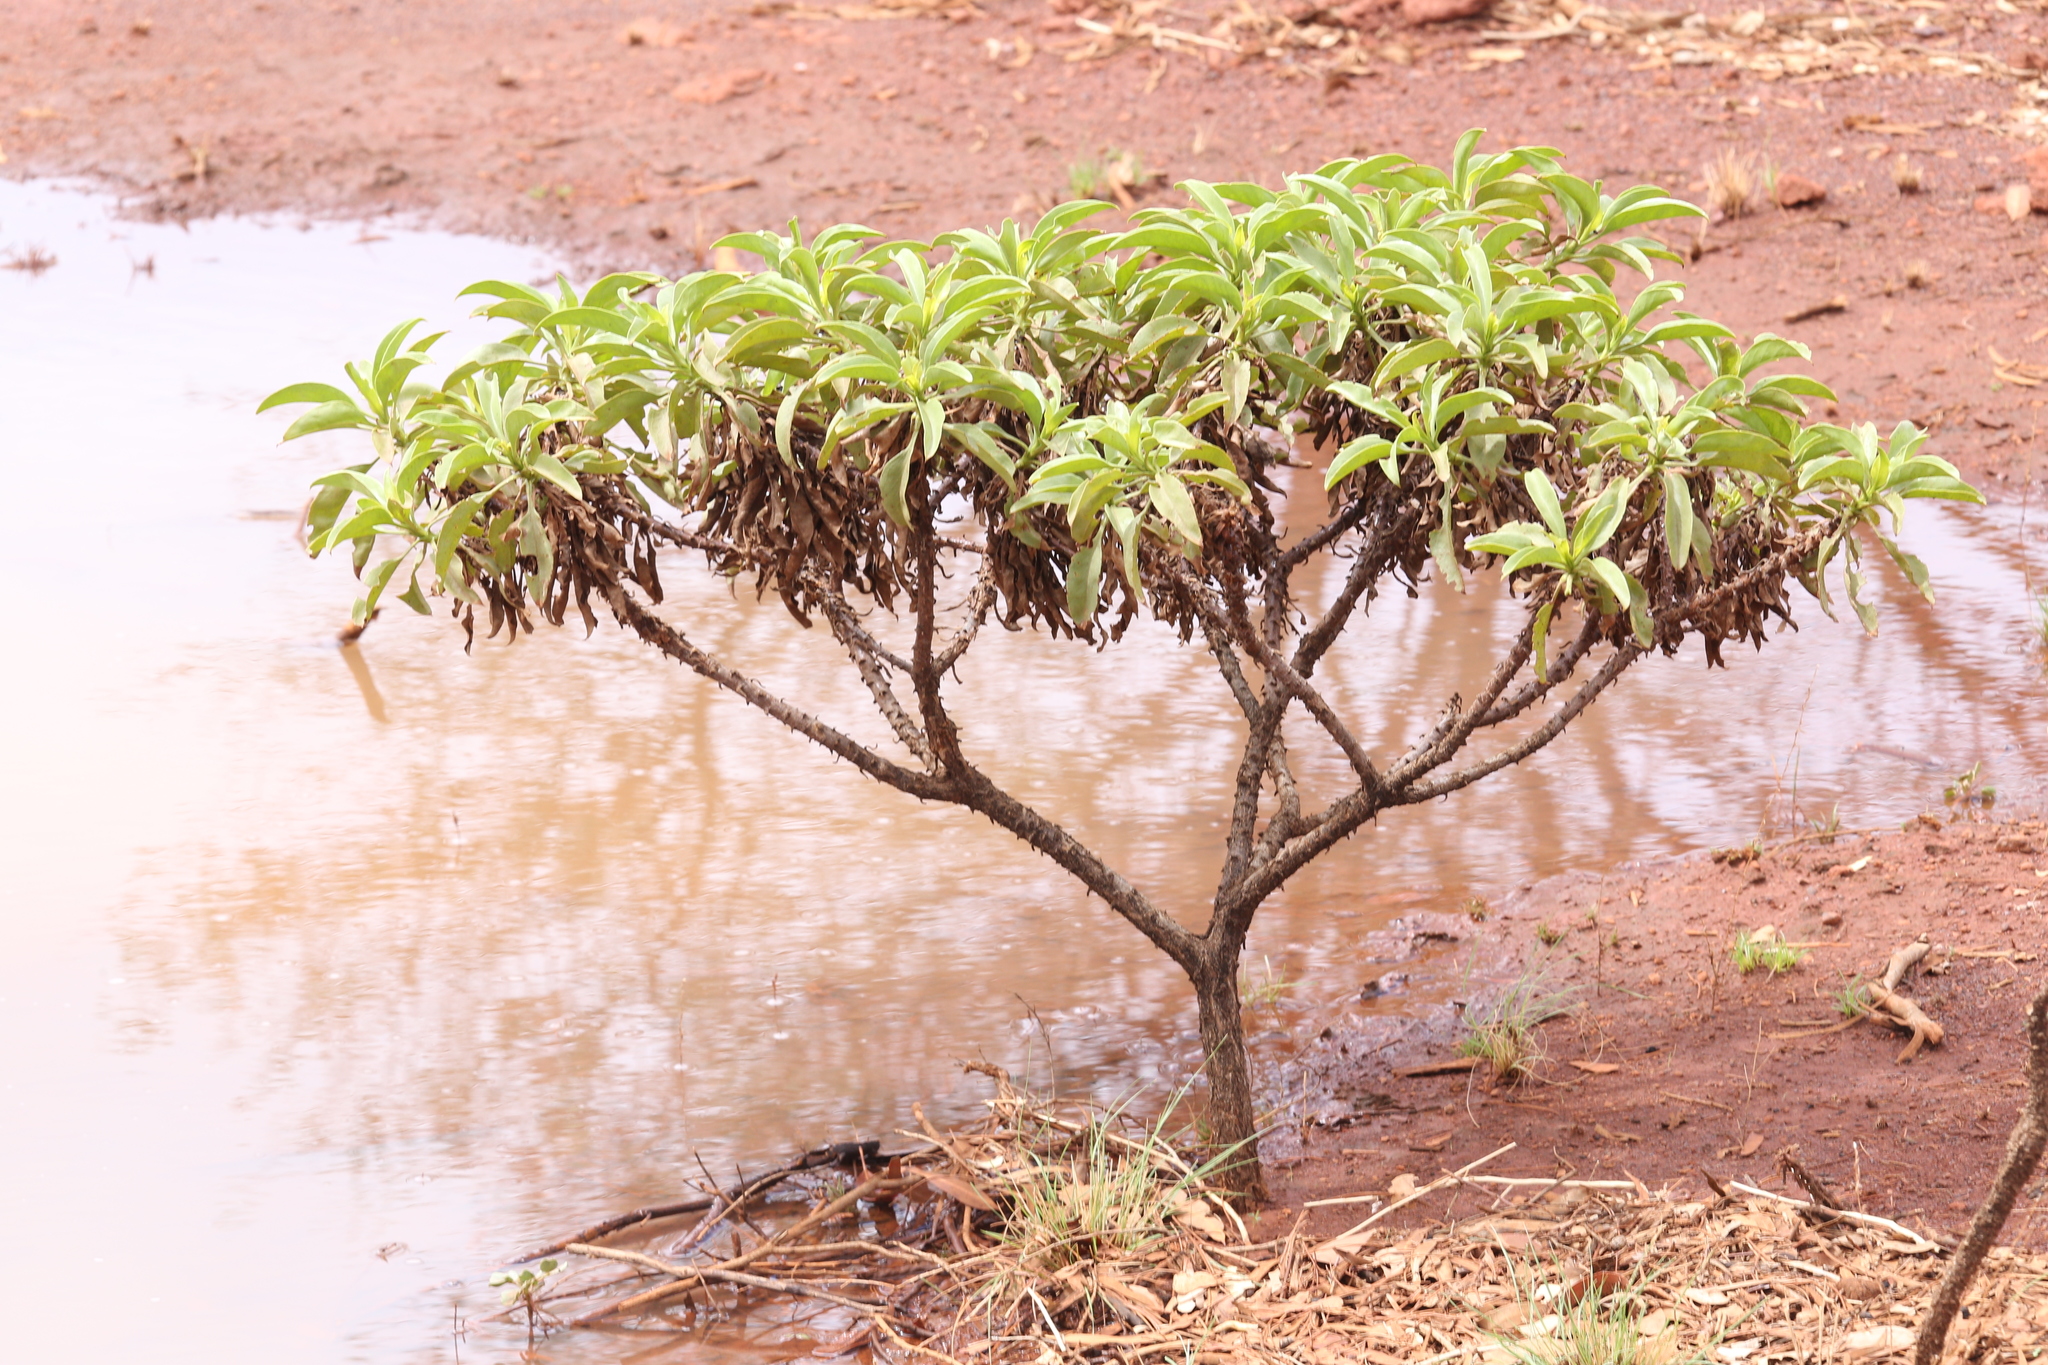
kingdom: Plantae
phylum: Tracheophyta
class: Magnoliopsida
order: Lamiales
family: Scrophulariaceae
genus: Eremophila
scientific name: Eremophila fraseri
